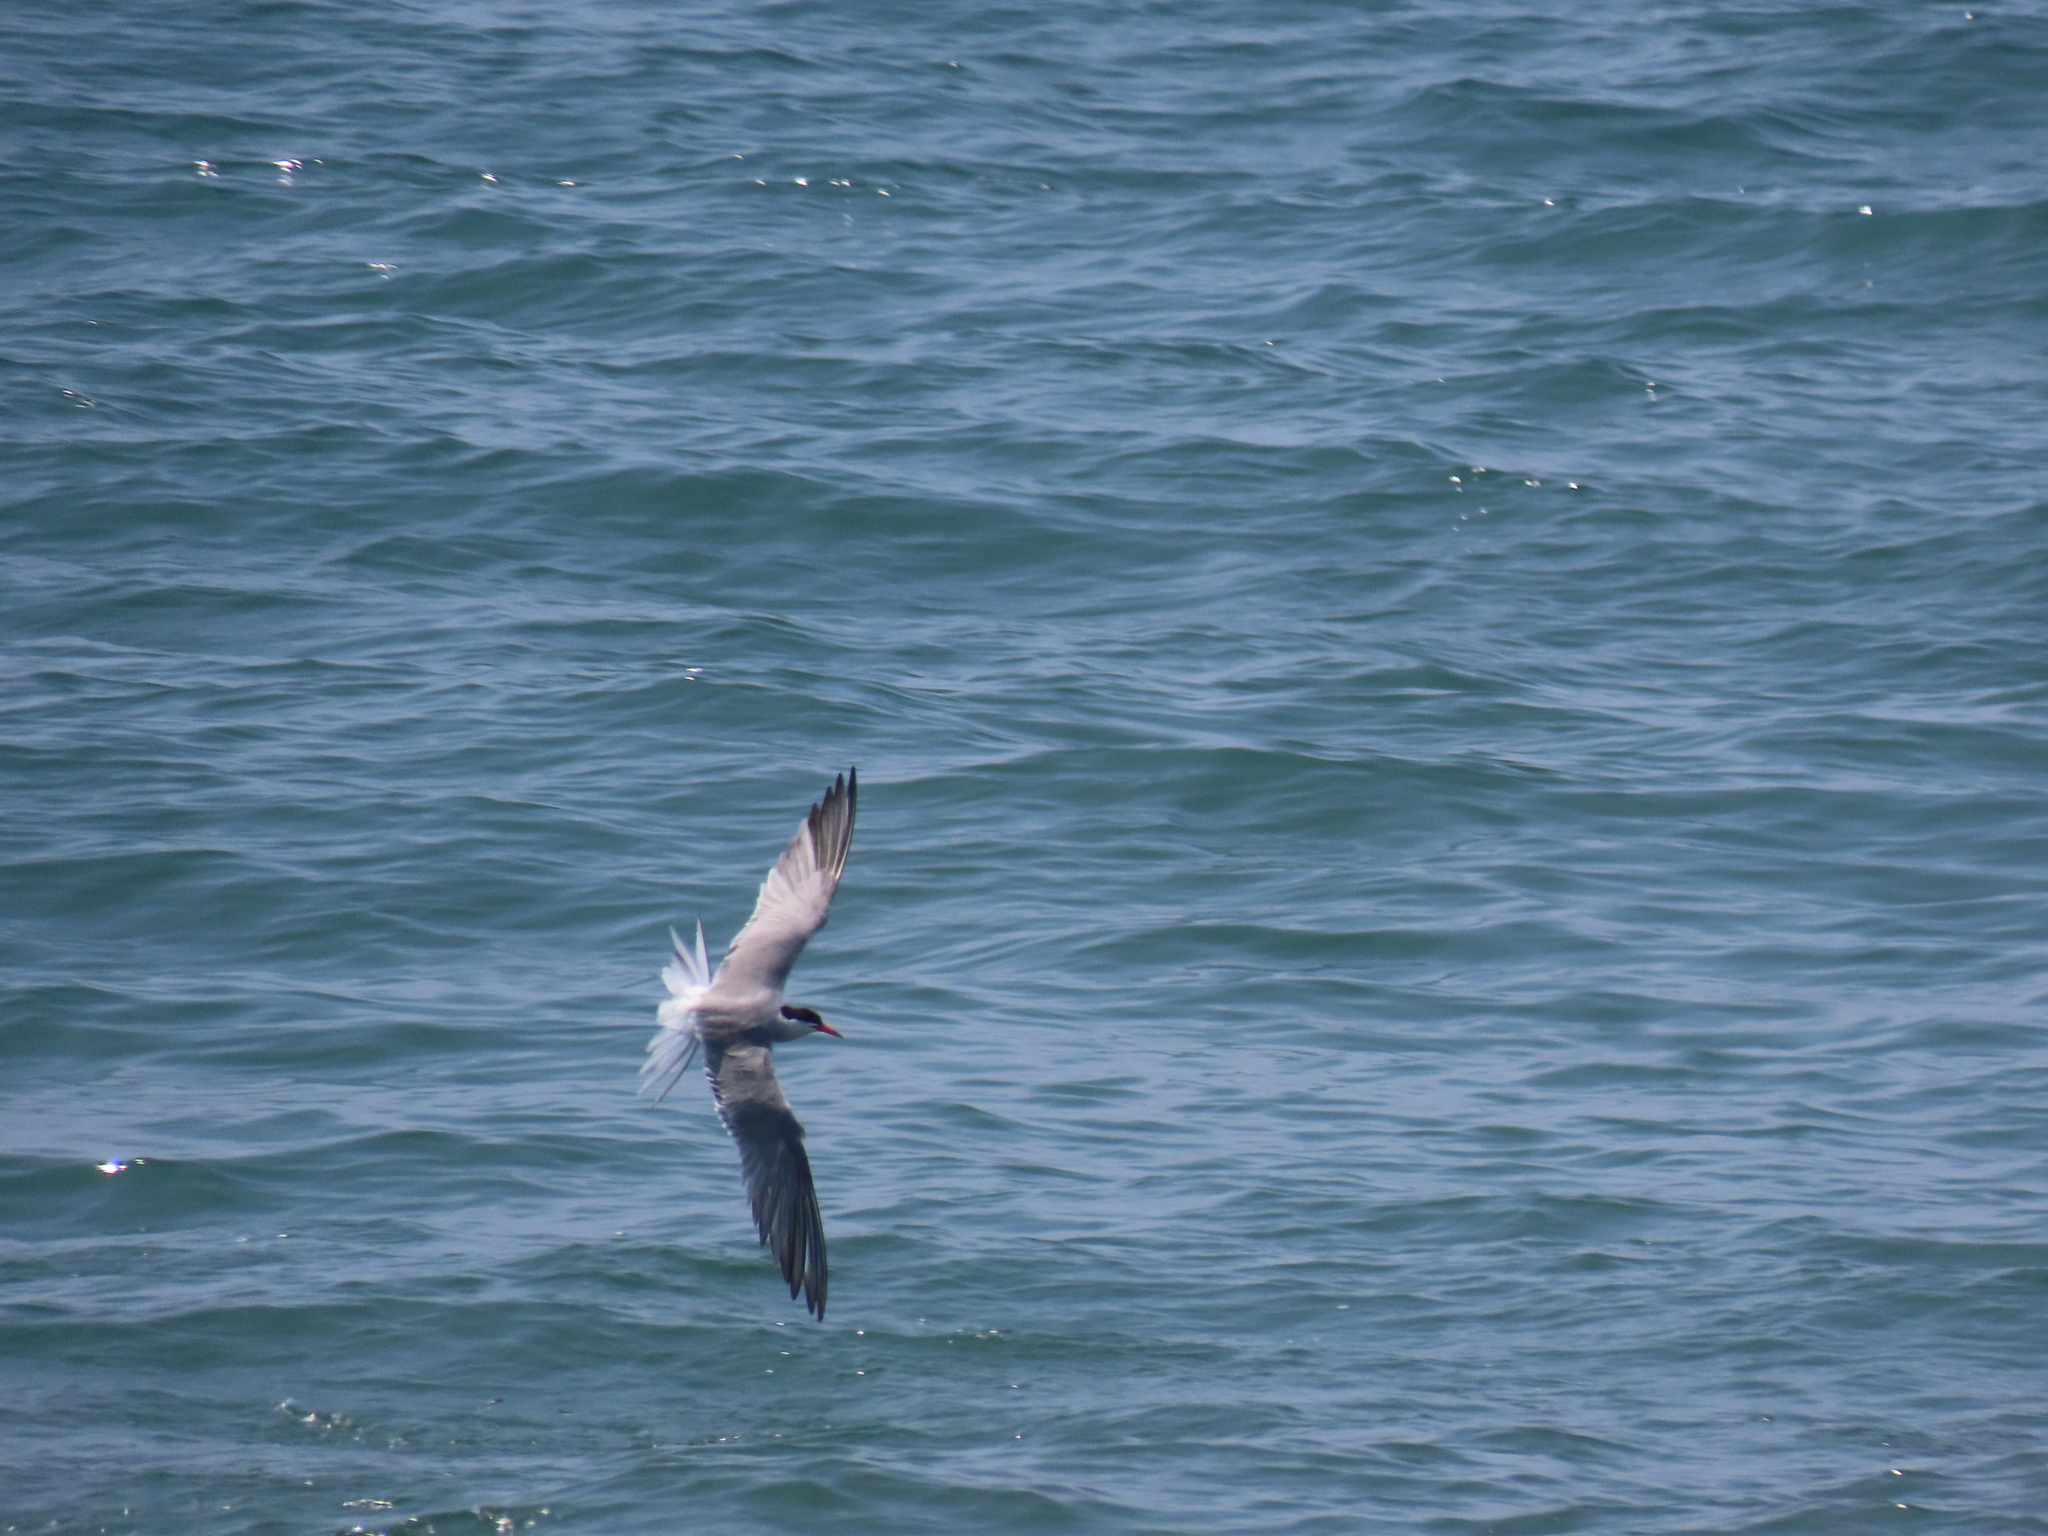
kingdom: Animalia
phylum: Chordata
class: Aves
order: Charadriiformes
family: Laridae
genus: Sterna
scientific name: Sterna hirundo
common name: Common tern
